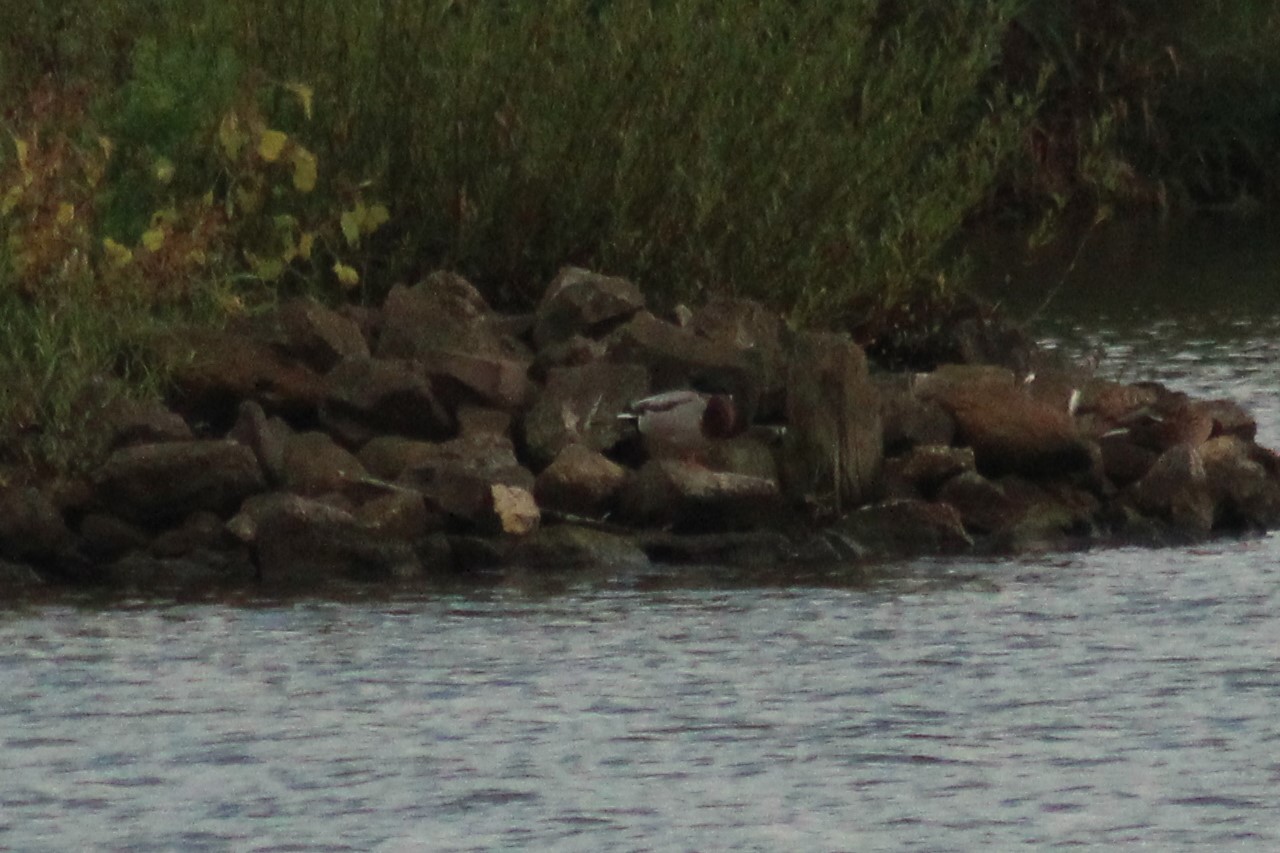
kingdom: Animalia
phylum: Chordata
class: Aves
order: Anseriformes
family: Anatidae
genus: Anas
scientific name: Anas platyrhynchos
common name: Mallard
